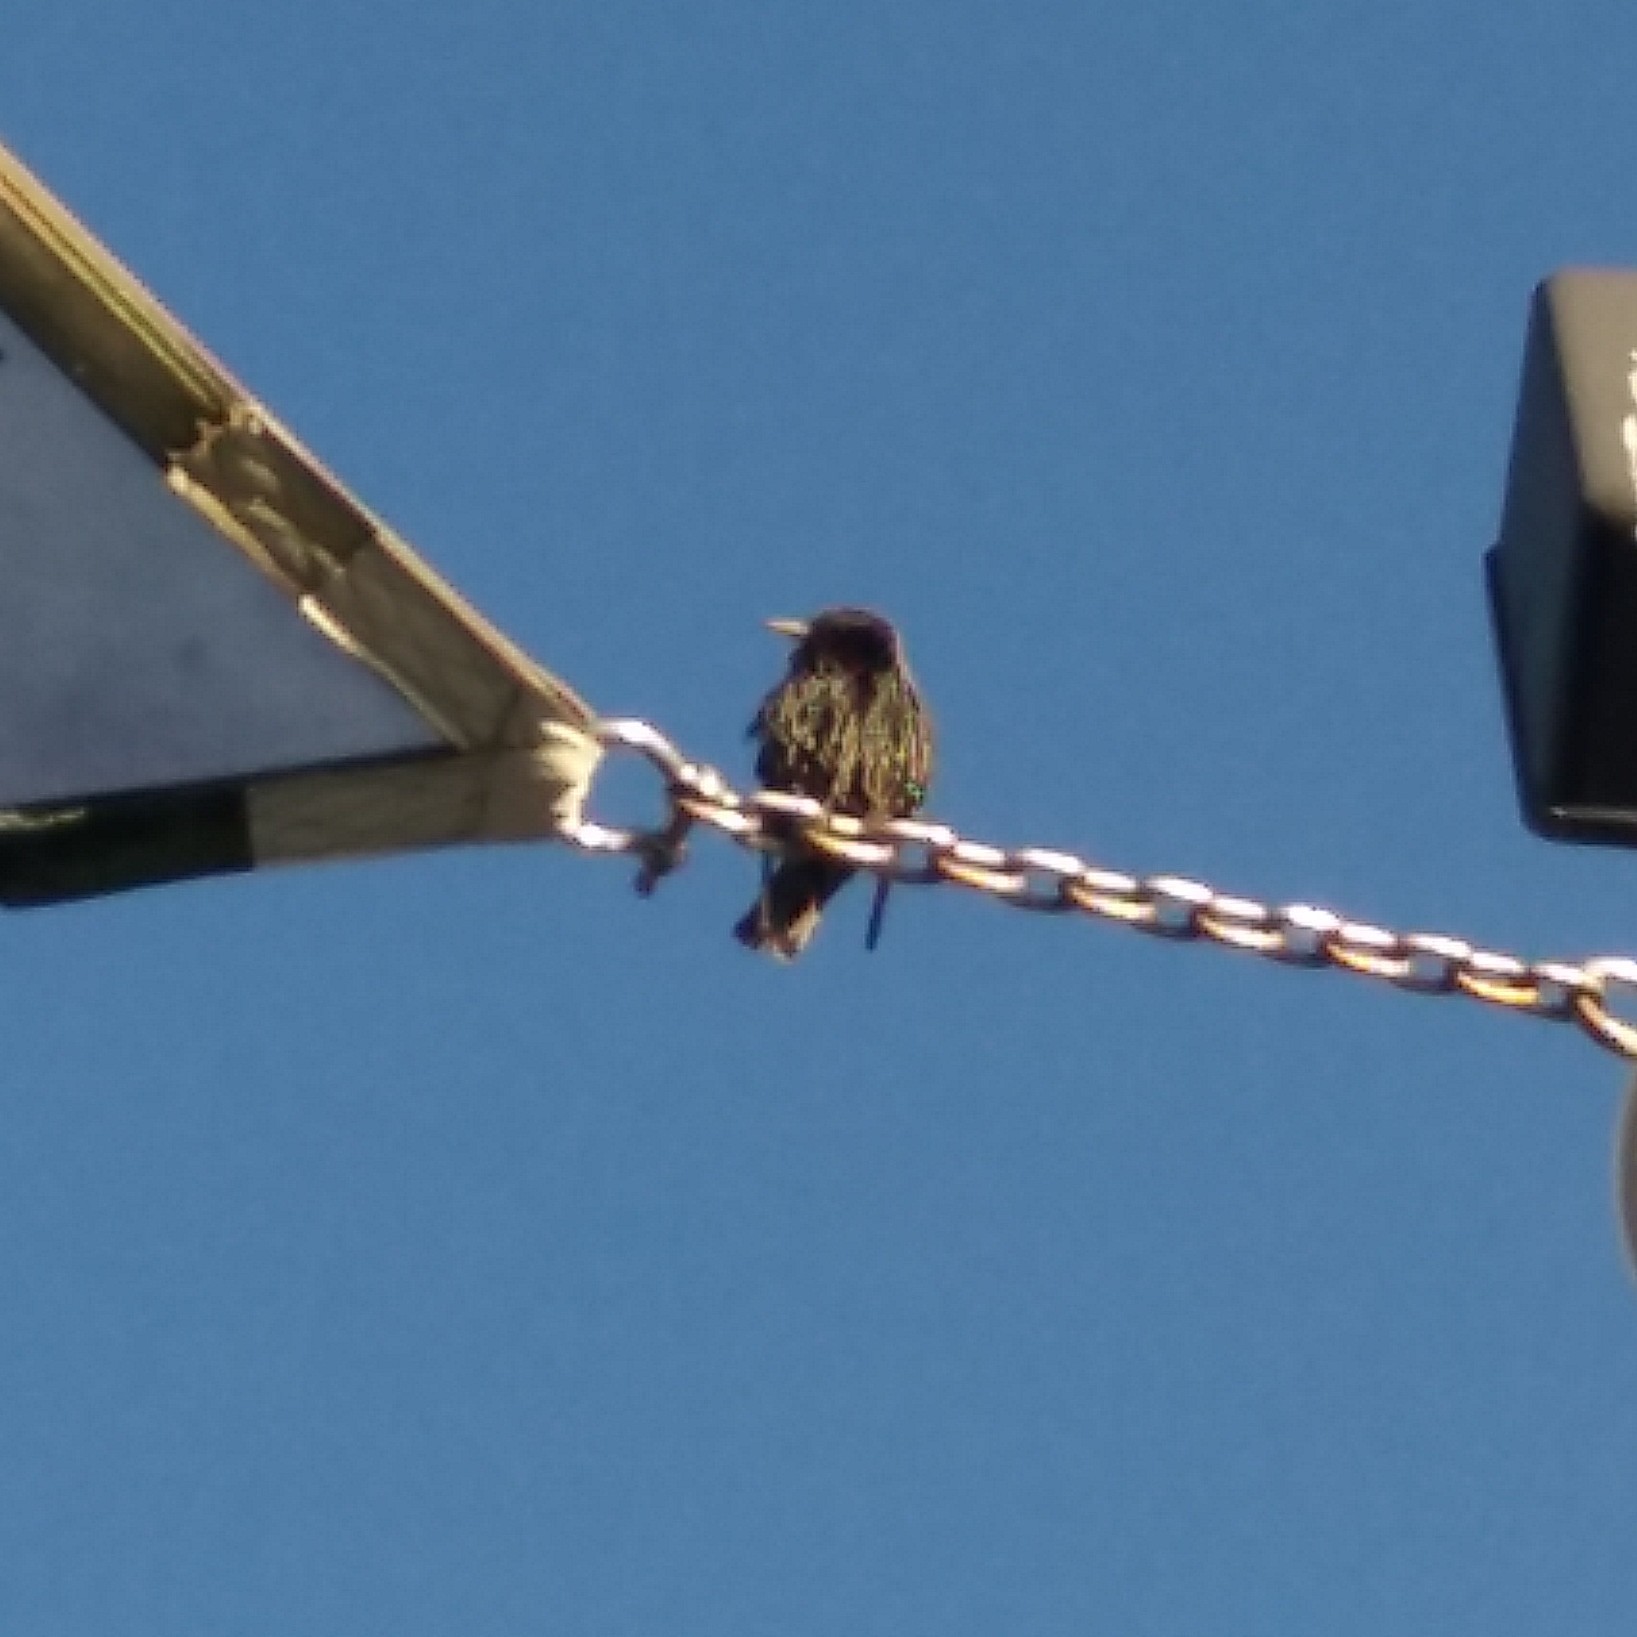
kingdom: Animalia
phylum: Chordata
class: Aves
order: Passeriformes
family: Sturnidae
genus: Sturnus
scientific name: Sturnus vulgaris
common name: Common starling
